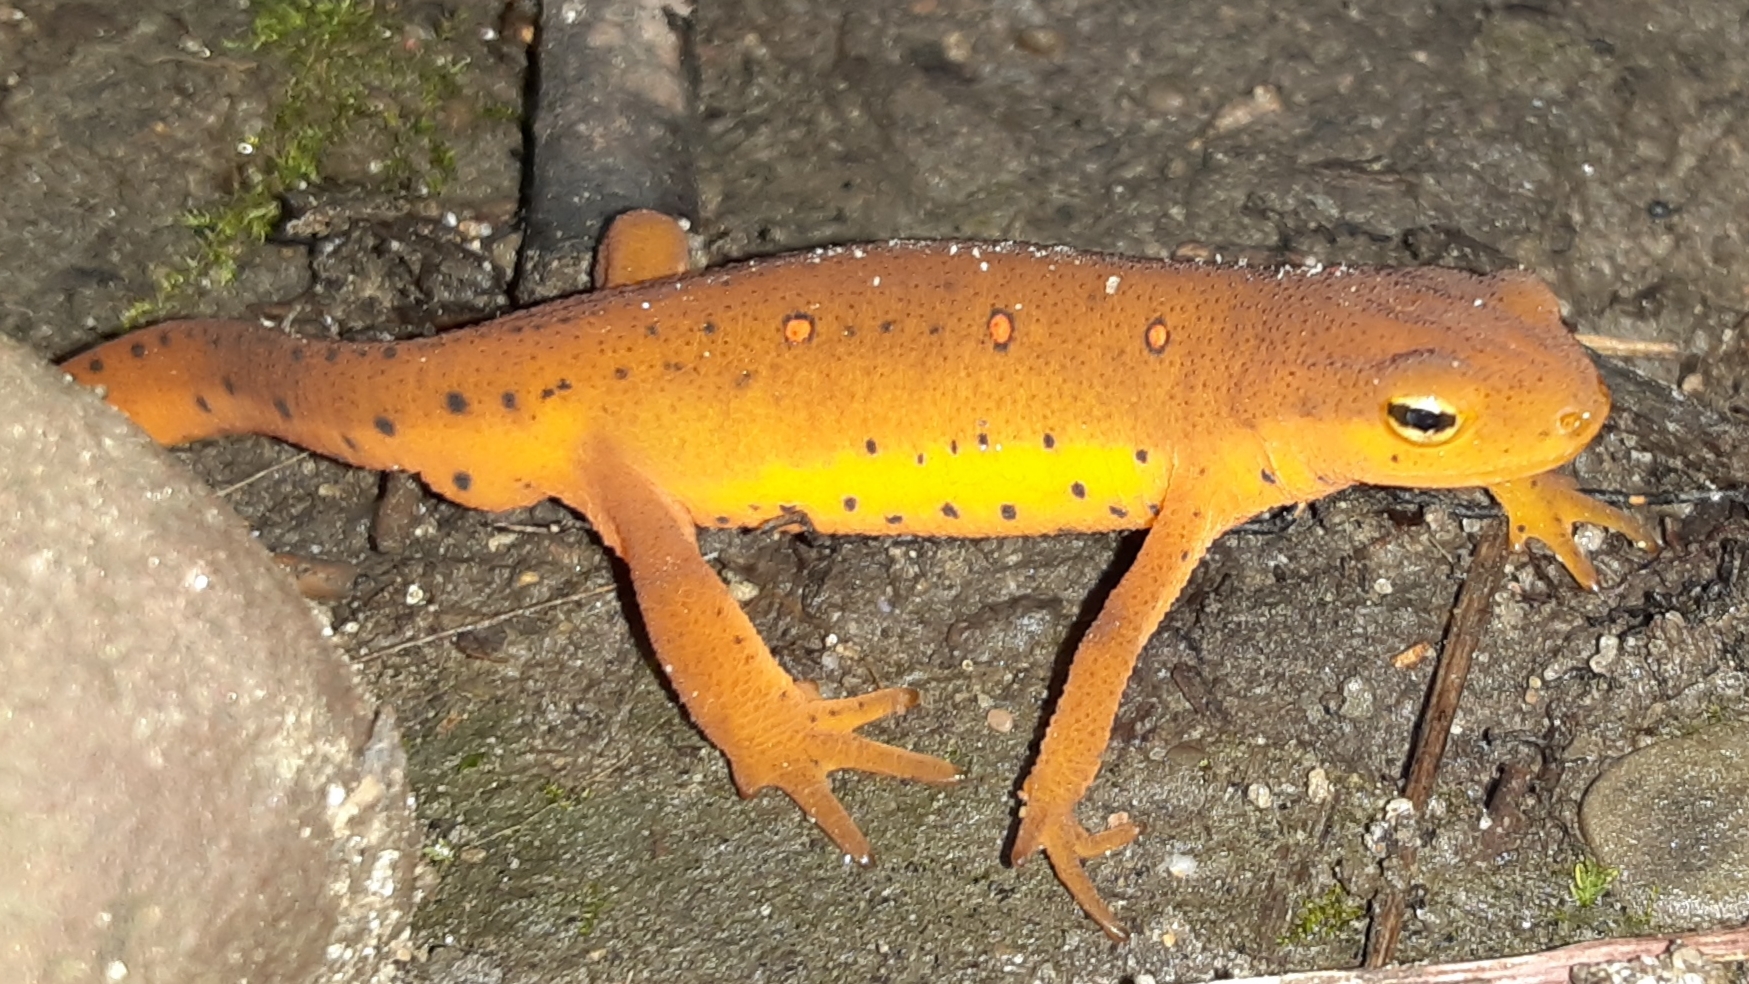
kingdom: Animalia
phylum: Chordata
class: Amphibia
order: Caudata
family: Salamandridae
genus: Notophthalmus
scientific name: Notophthalmus viridescens
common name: Eastern newt
